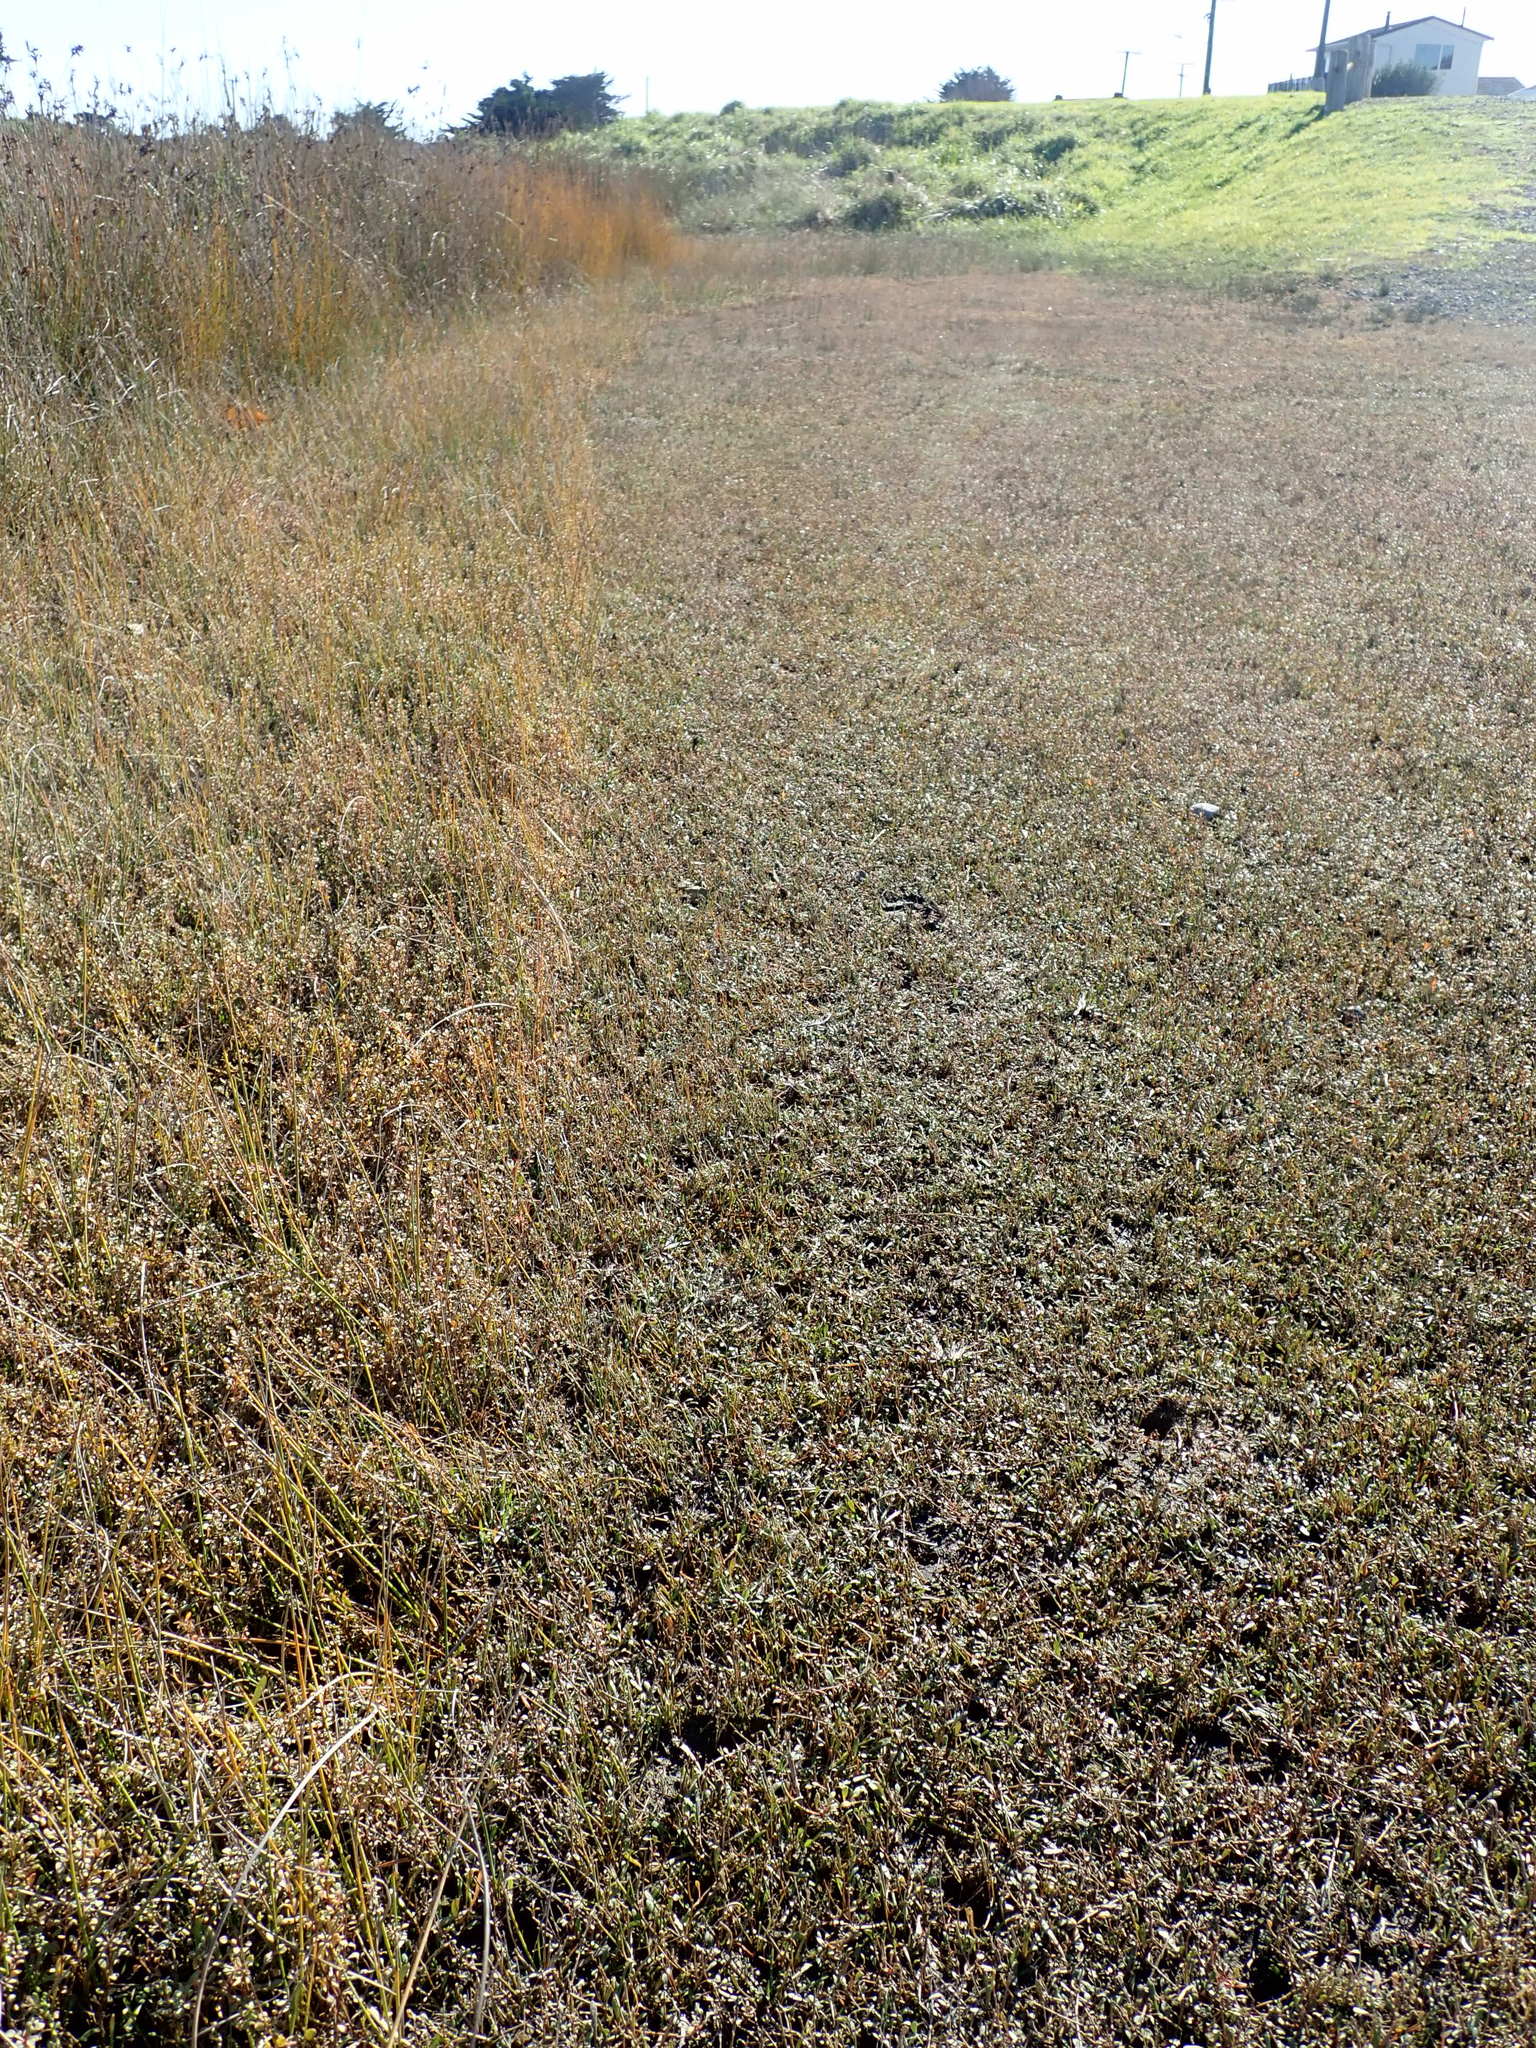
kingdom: Plantae
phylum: Tracheophyta
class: Magnoliopsida
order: Ericales
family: Primulaceae
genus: Samolus
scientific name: Samolus repens
